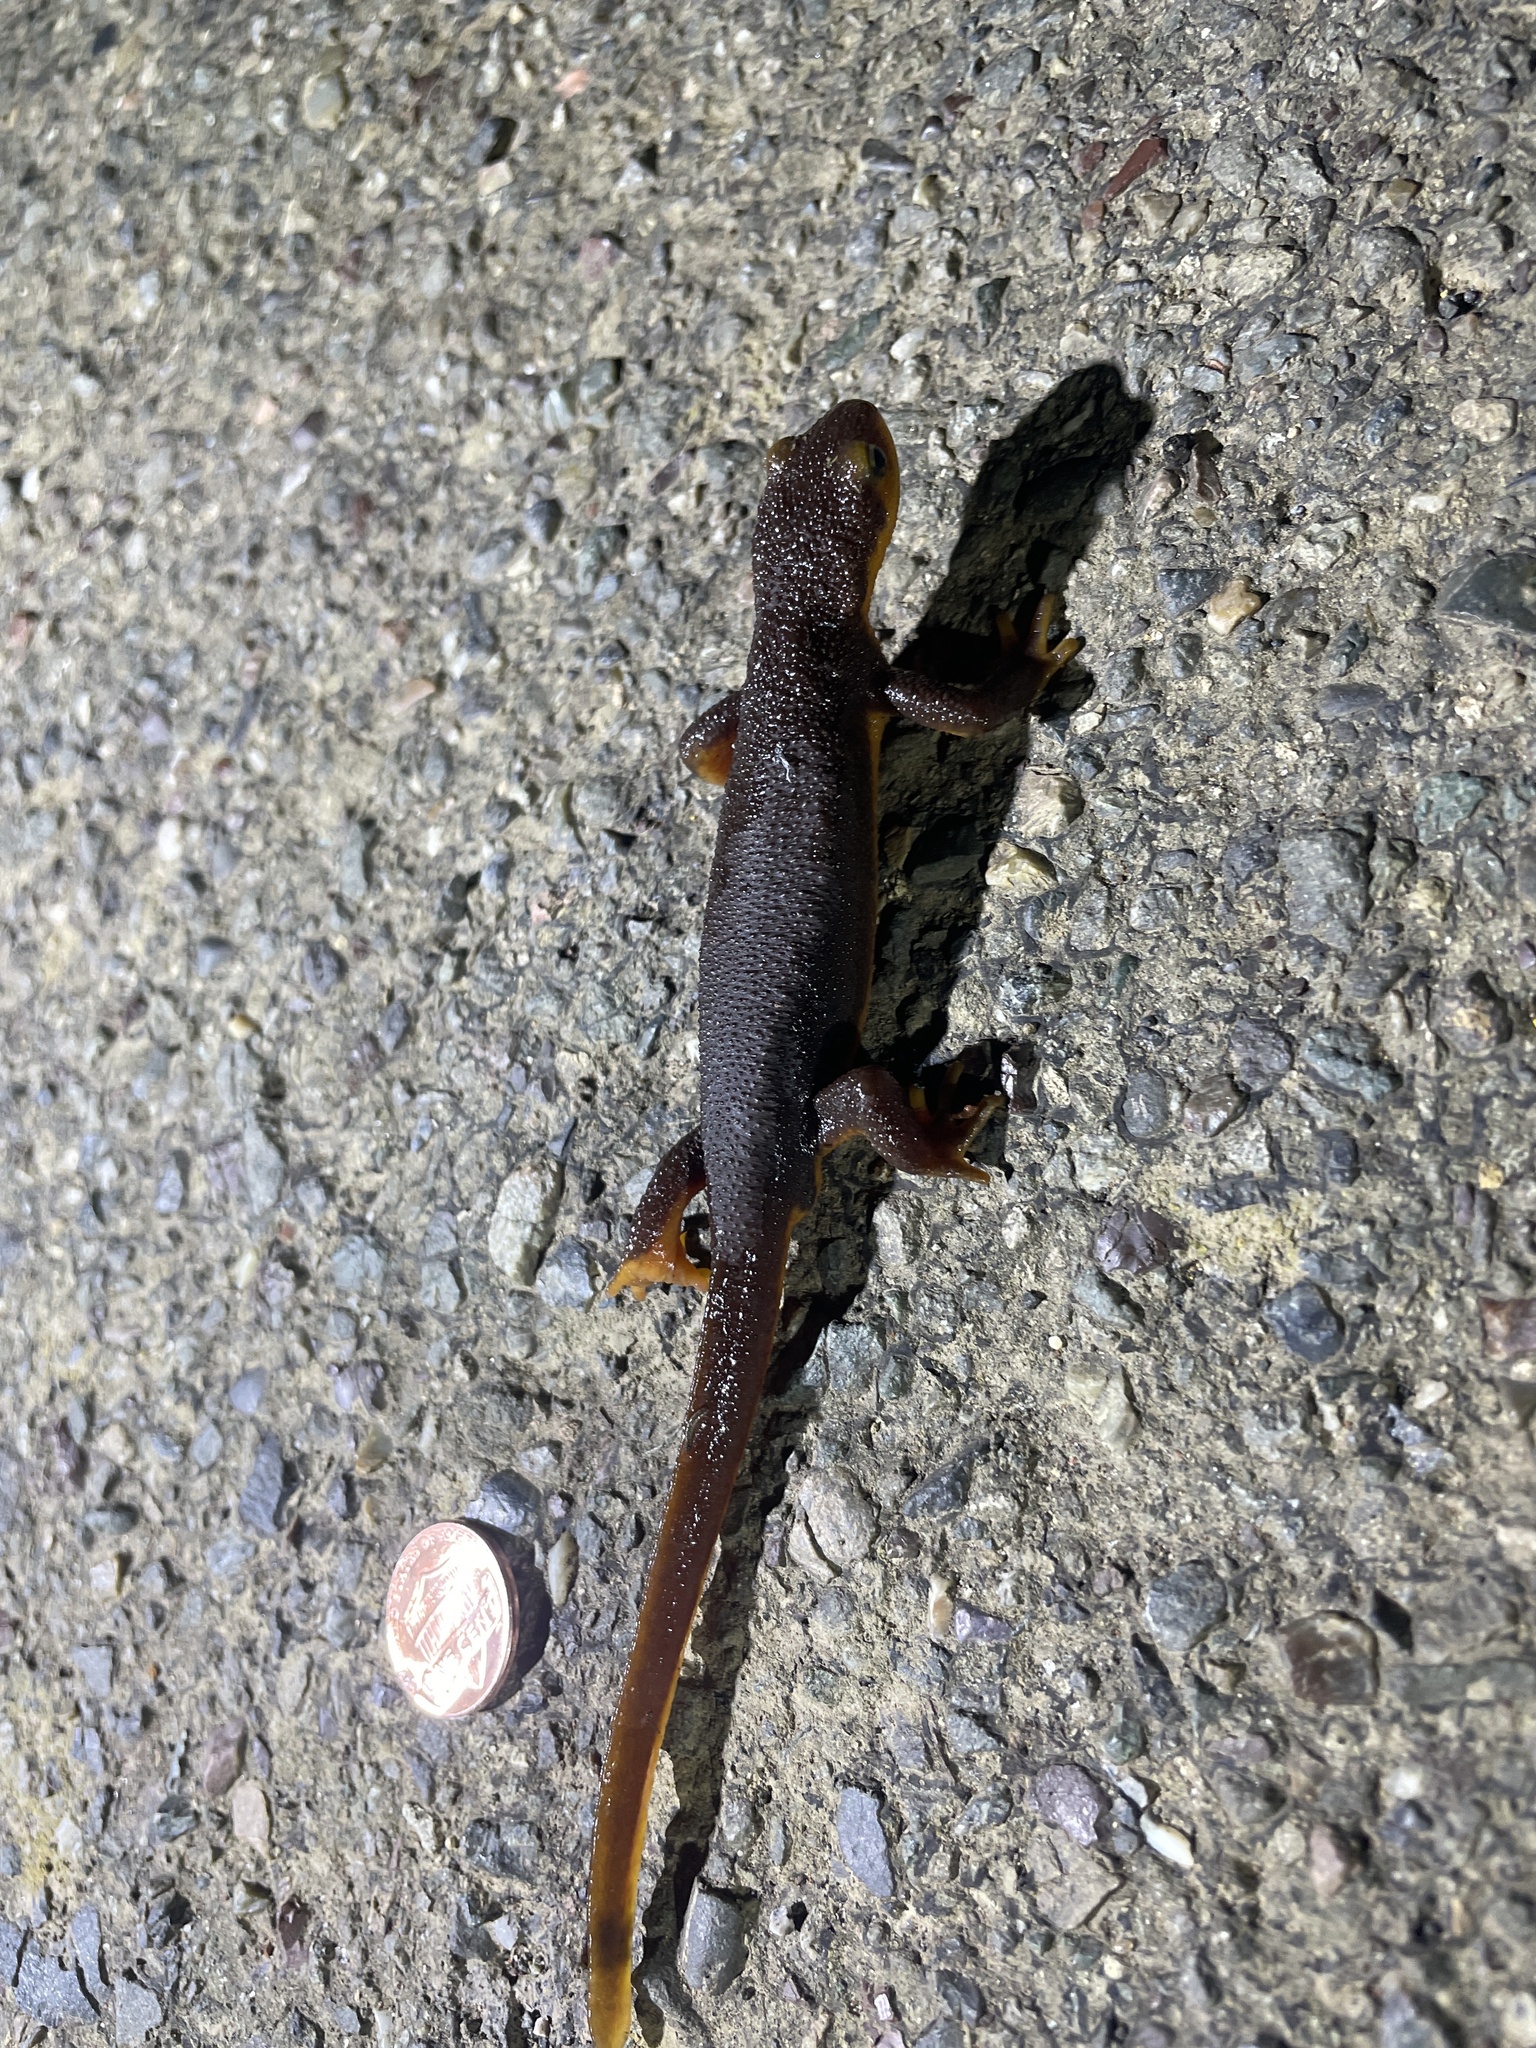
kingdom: Animalia
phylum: Chordata
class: Amphibia
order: Caudata
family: Salamandridae
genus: Taricha
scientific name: Taricha torosa
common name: California newt
